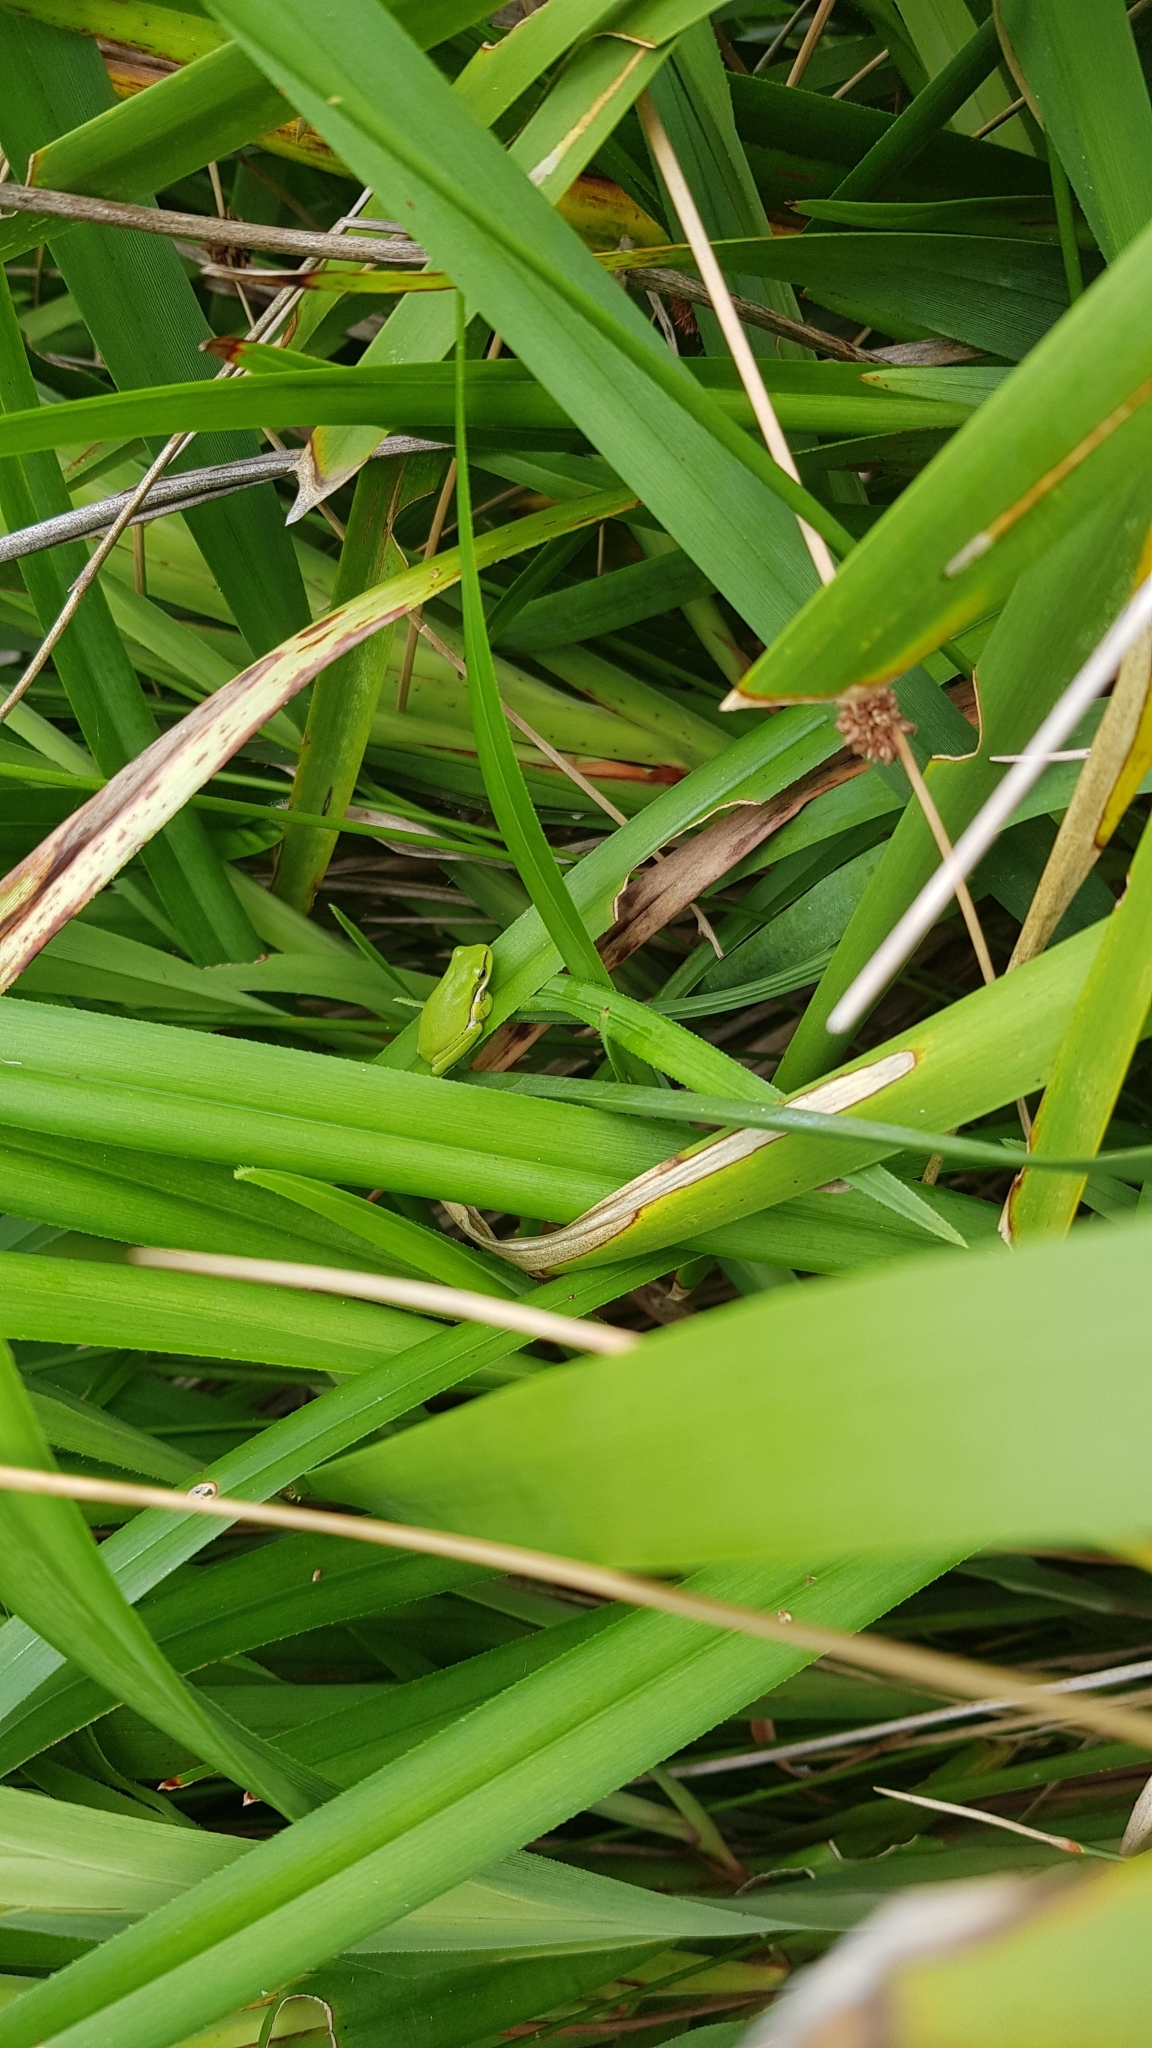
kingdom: Animalia
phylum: Chordata
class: Amphibia
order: Anura
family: Pelodryadidae
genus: Litoria
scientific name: Litoria fallax
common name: Eastern dwarf treefrog
